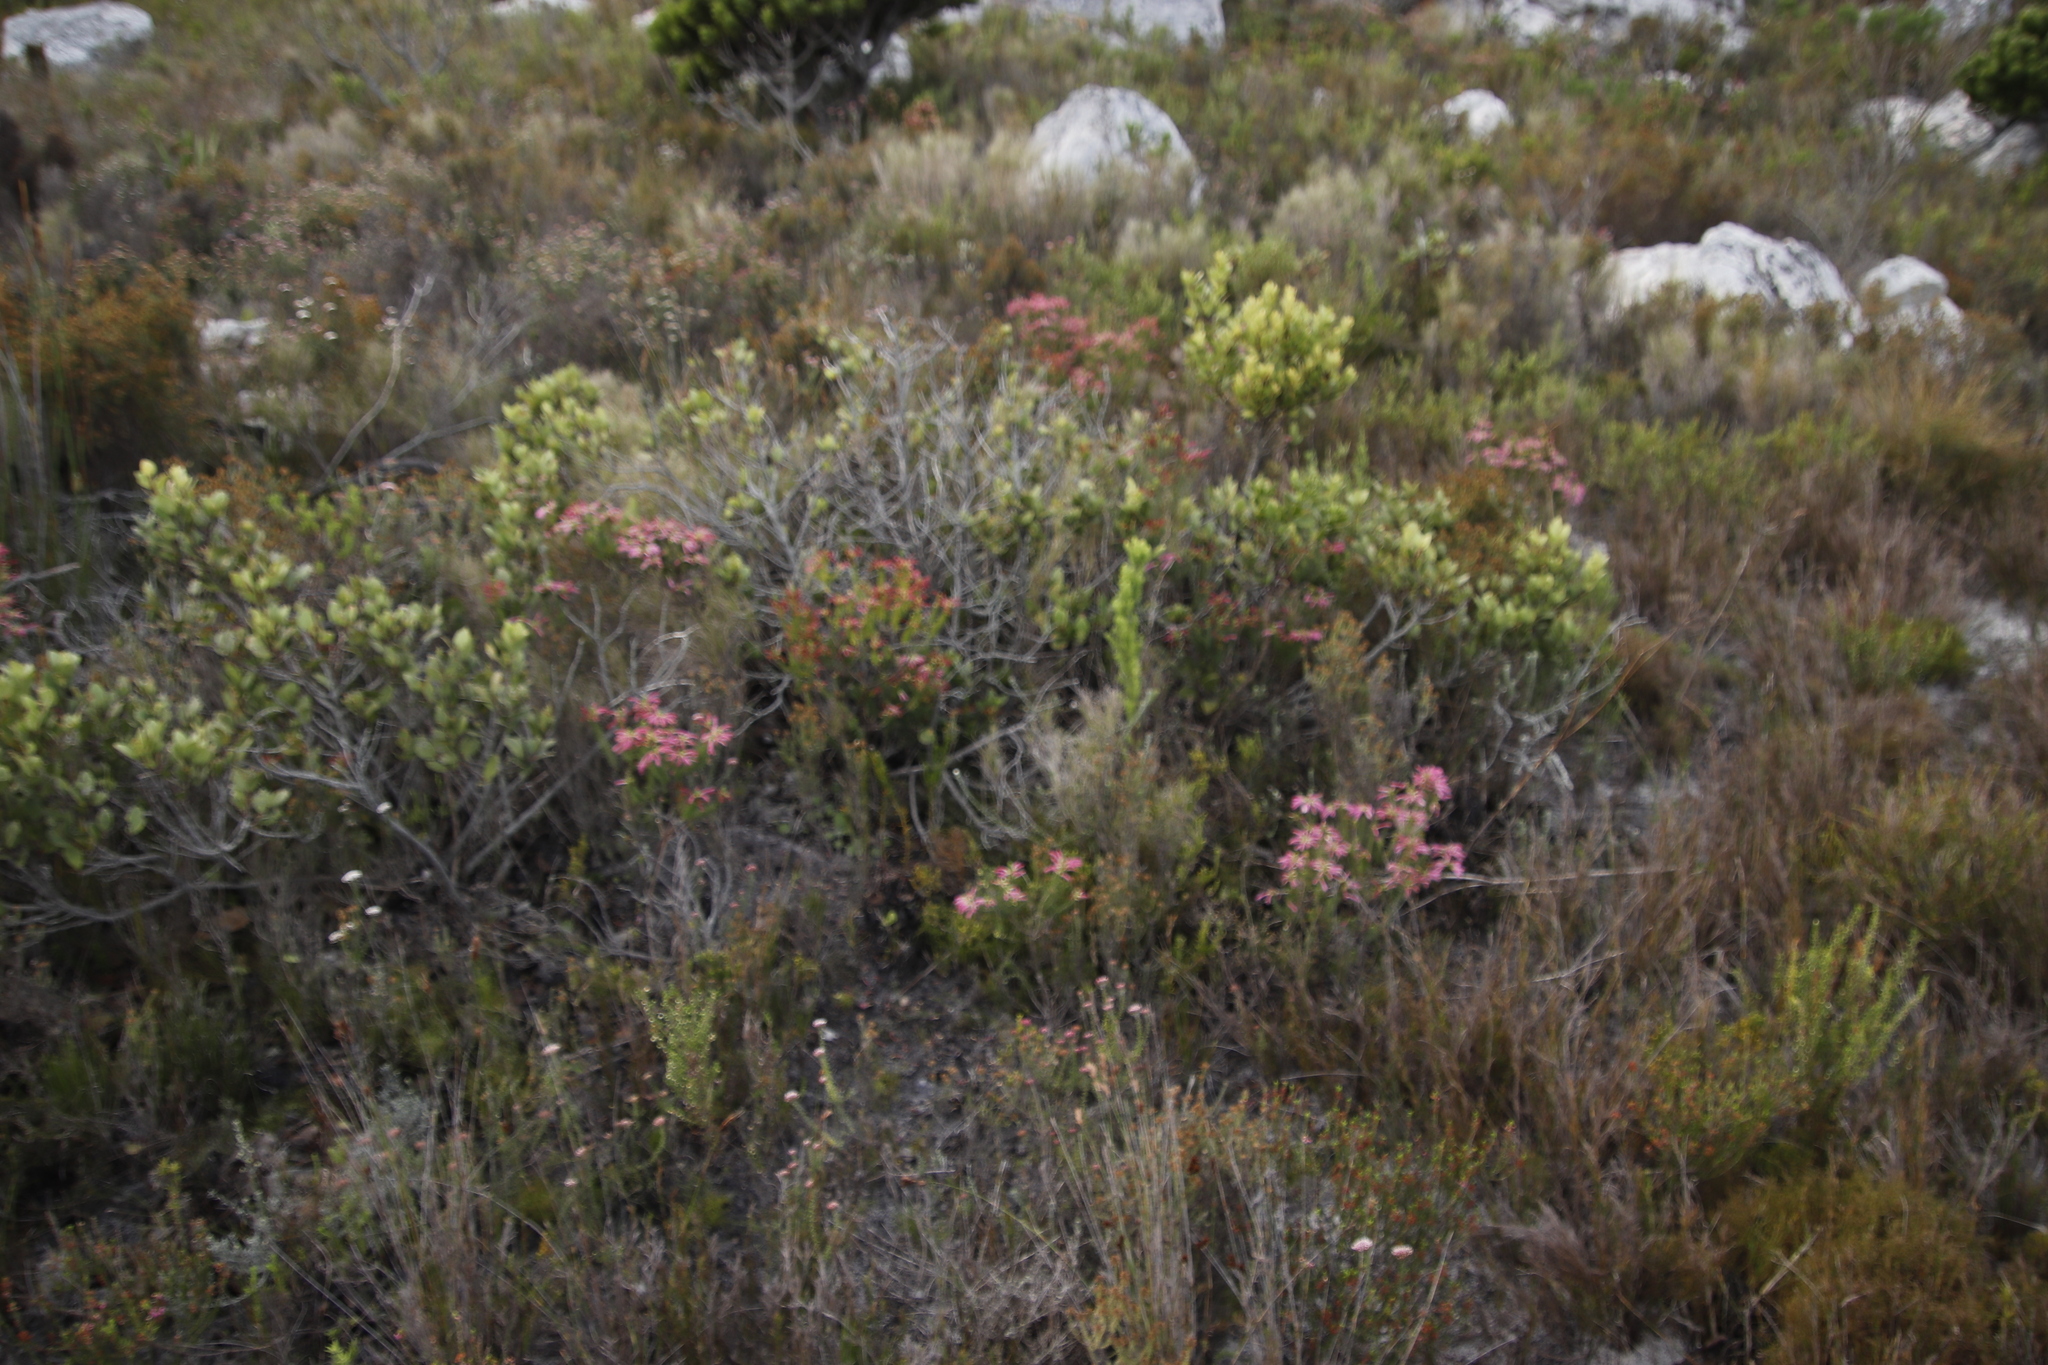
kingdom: Plantae
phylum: Tracheophyta
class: Magnoliopsida
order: Ericales
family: Ericaceae
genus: Erica
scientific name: Erica abietina
